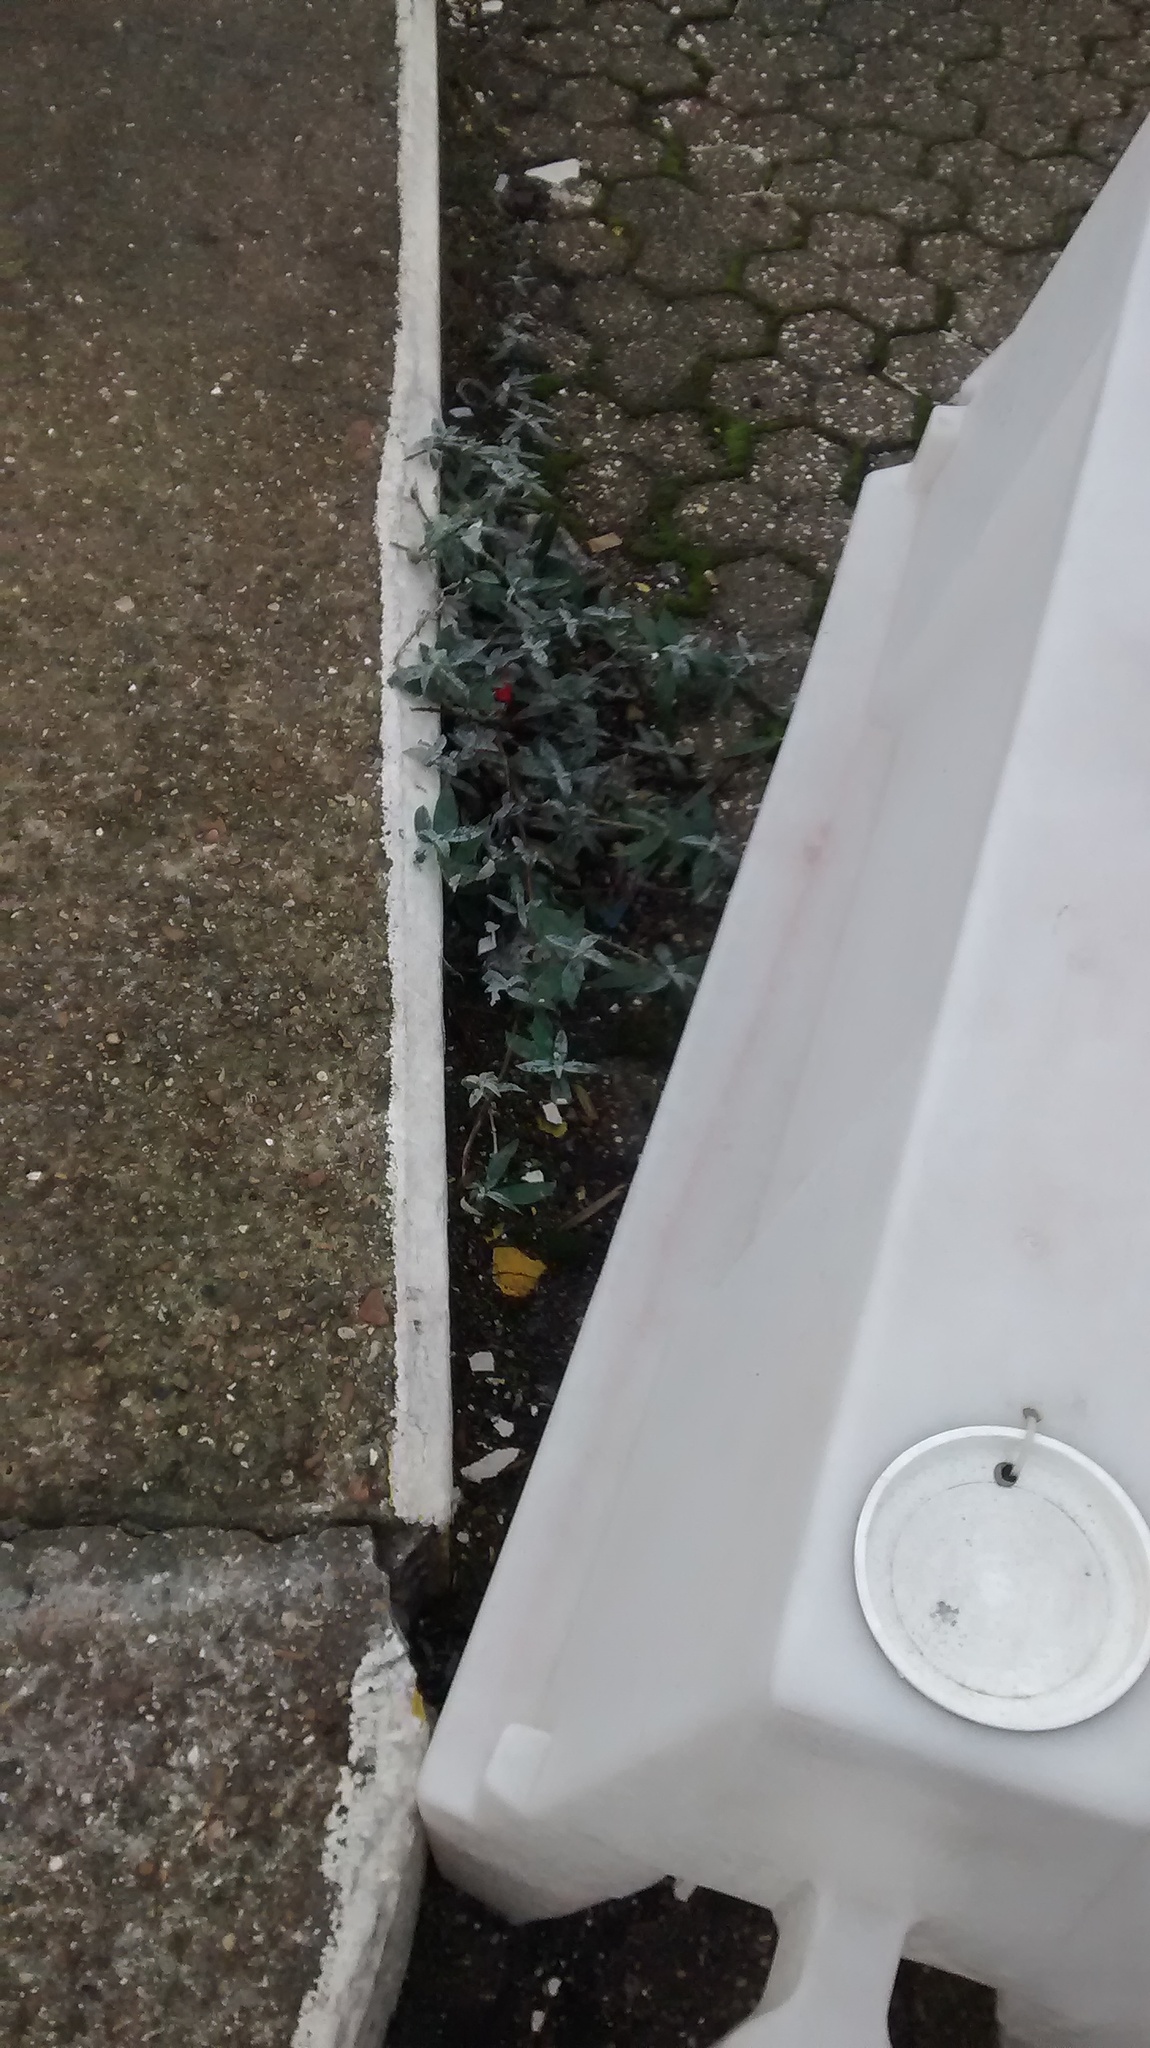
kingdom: Plantae
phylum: Tracheophyta
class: Magnoliopsida
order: Lamiales
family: Scrophulariaceae
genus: Buddleja
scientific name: Buddleja davidii
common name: Butterfly-bush
